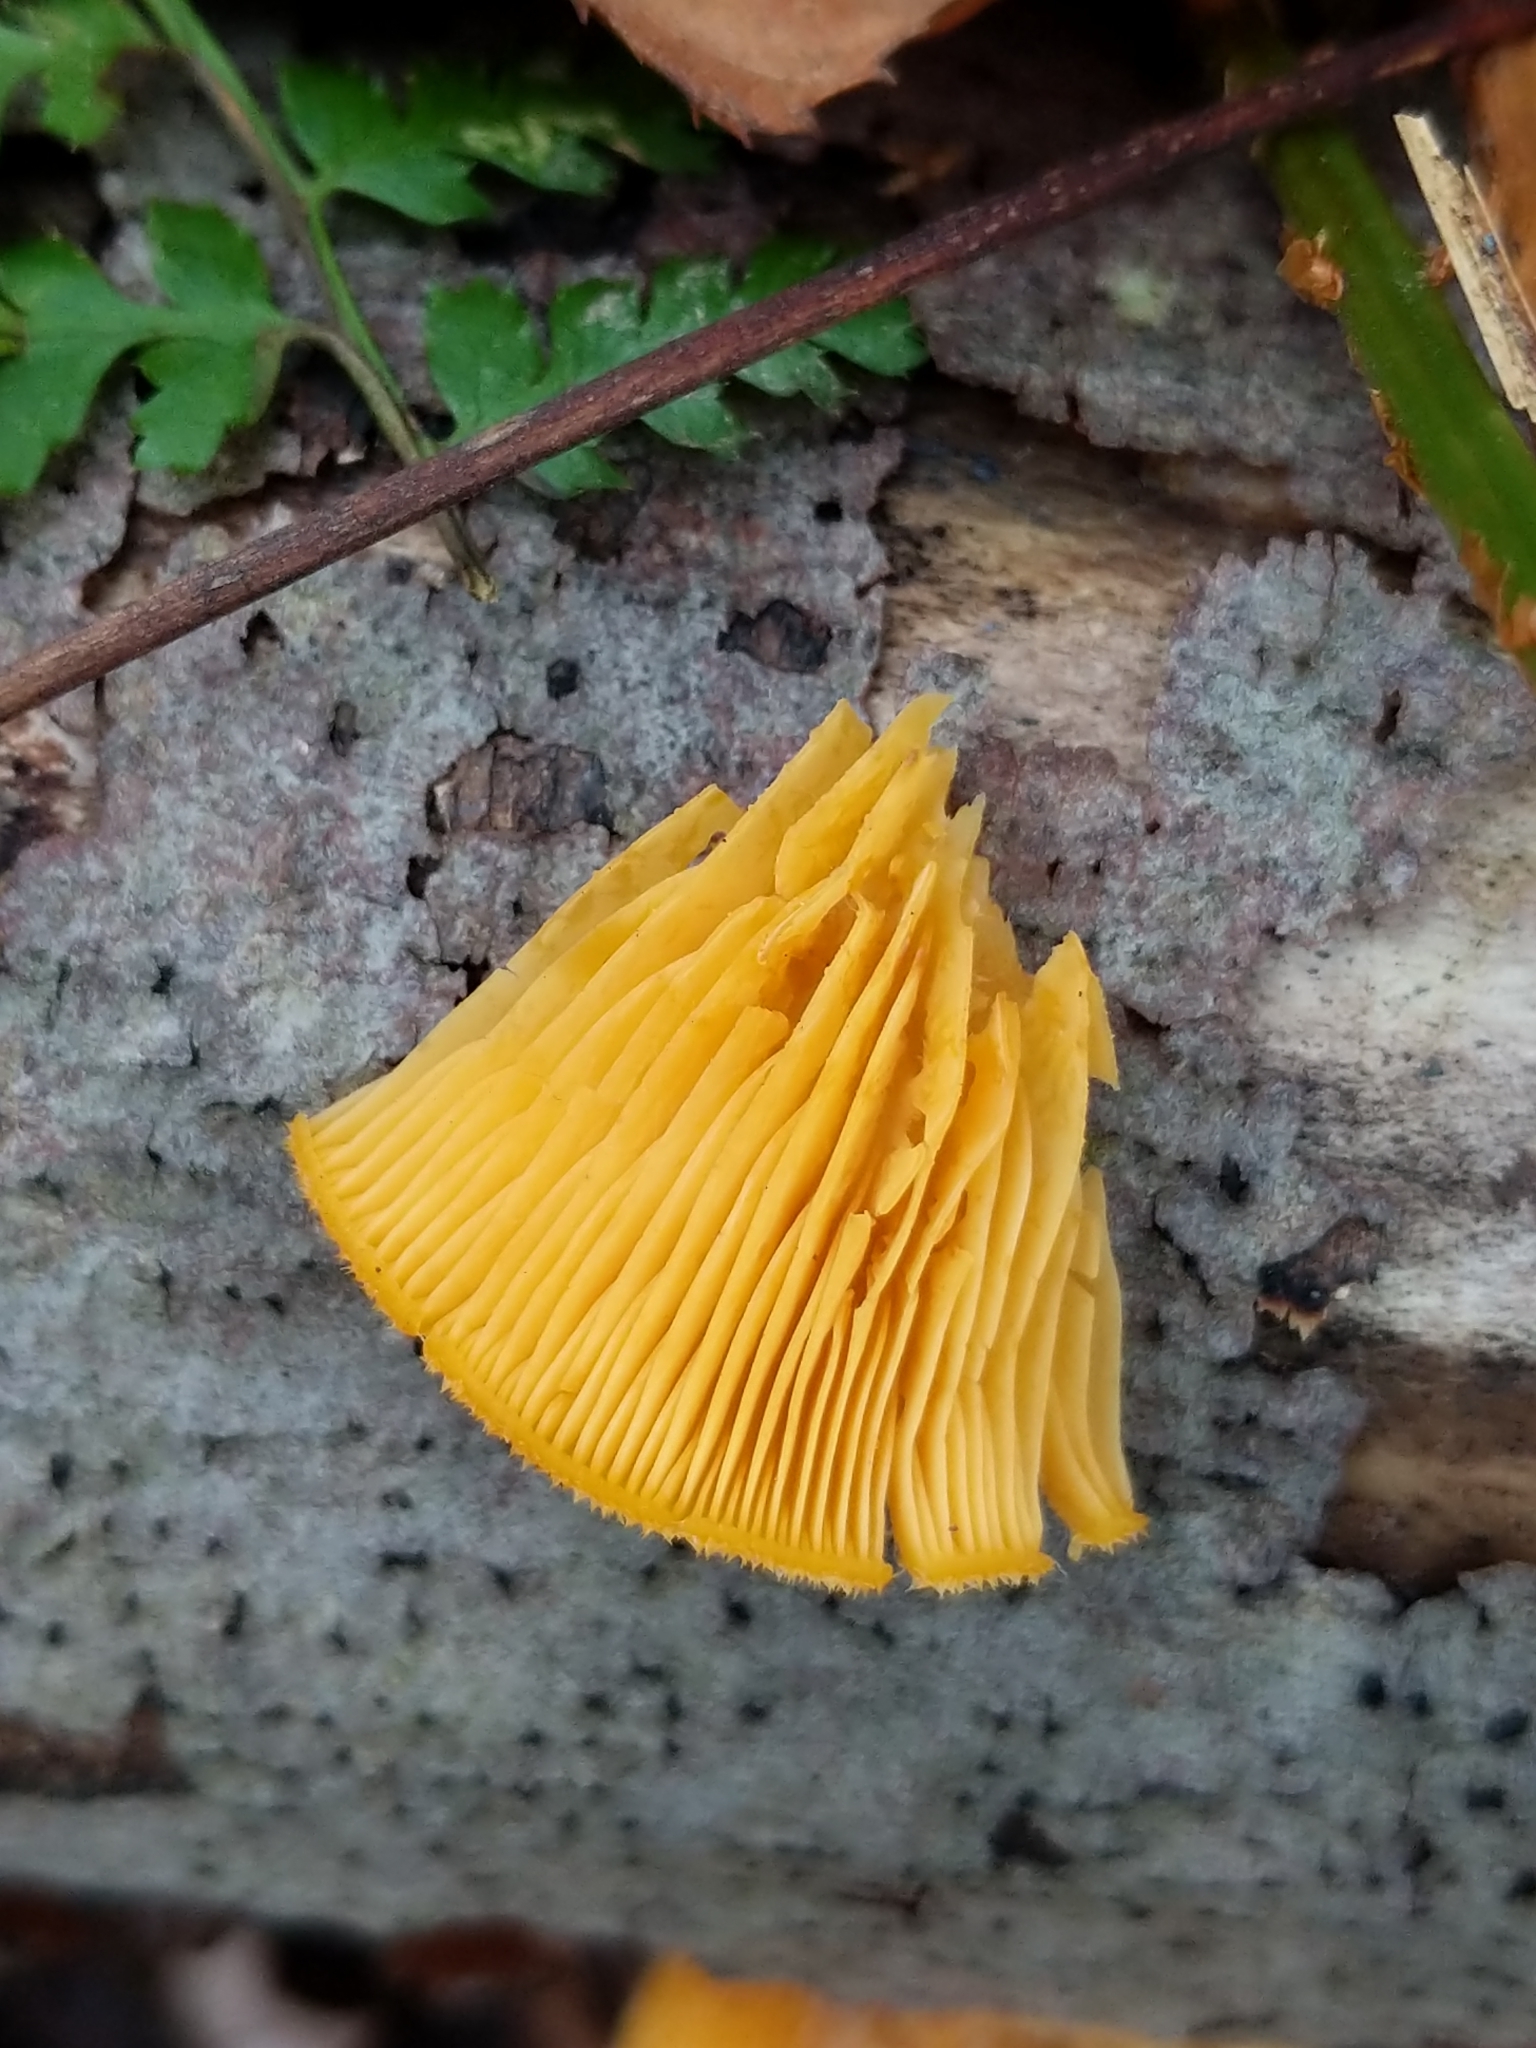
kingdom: Fungi
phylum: Basidiomycota
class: Agaricomycetes
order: Agaricales
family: Phyllotopsidaceae
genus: Phyllotopsis
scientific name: Phyllotopsis nidulans
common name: Orange mock oyster
